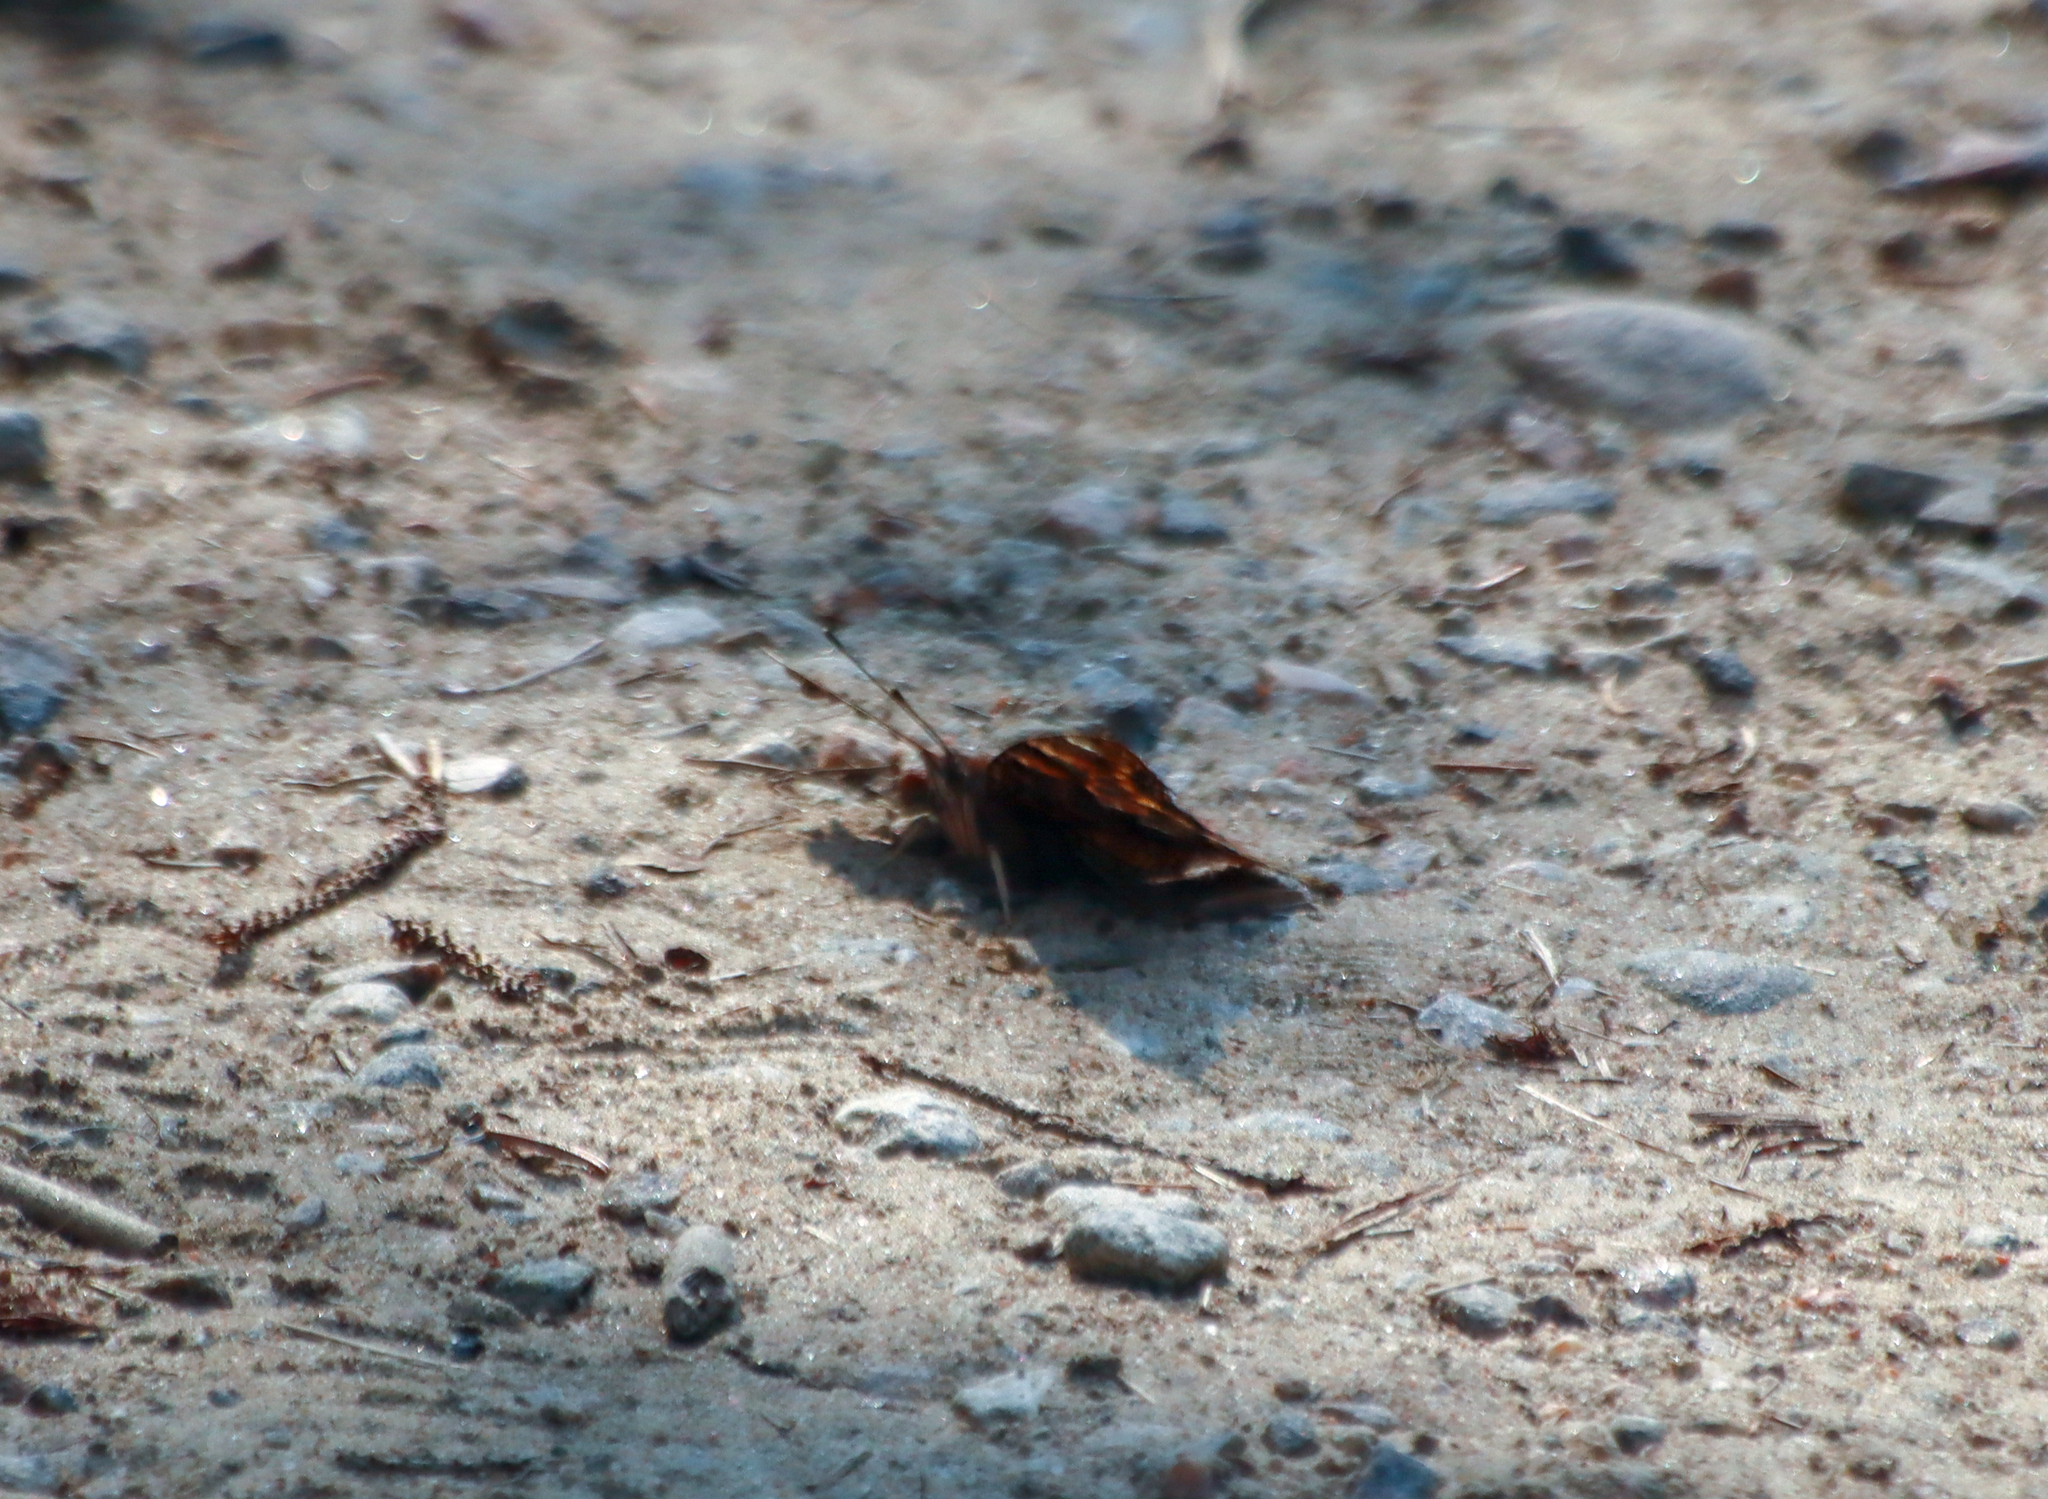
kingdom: Animalia
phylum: Arthropoda
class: Insecta
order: Lepidoptera
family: Nymphalidae
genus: Polygonia
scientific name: Polygonia vaualbum
